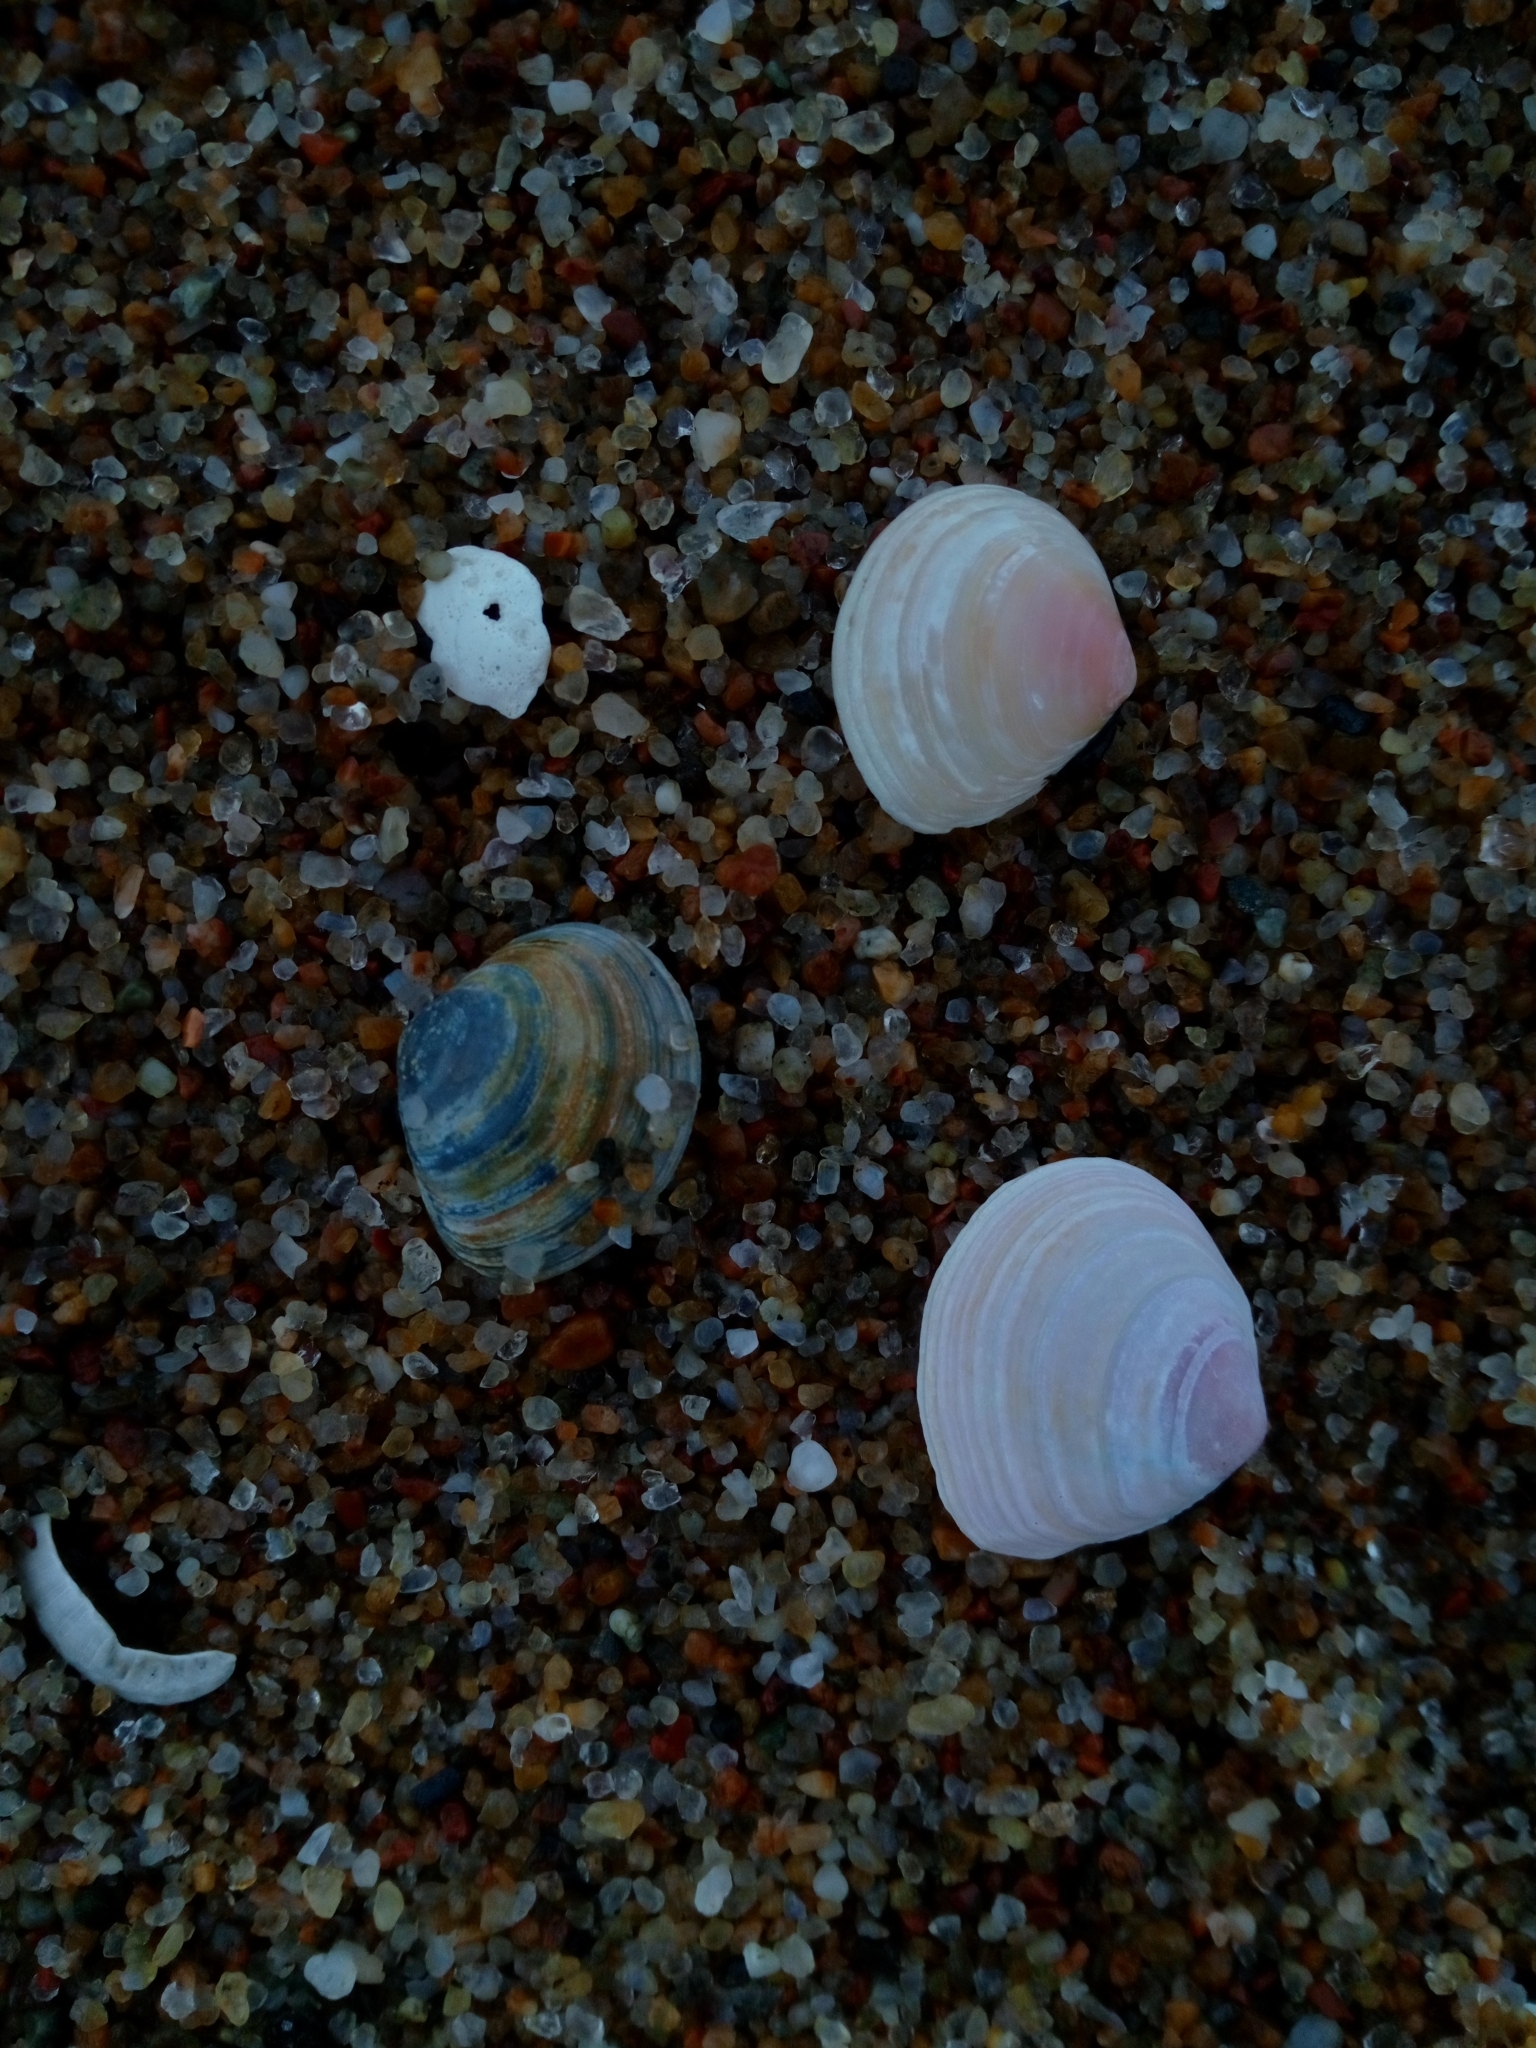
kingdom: Animalia
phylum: Mollusca
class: Bivalvia
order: Cardiida
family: Tellinidae
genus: Macoma
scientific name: Macoma balthica
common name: Baltic tellin
